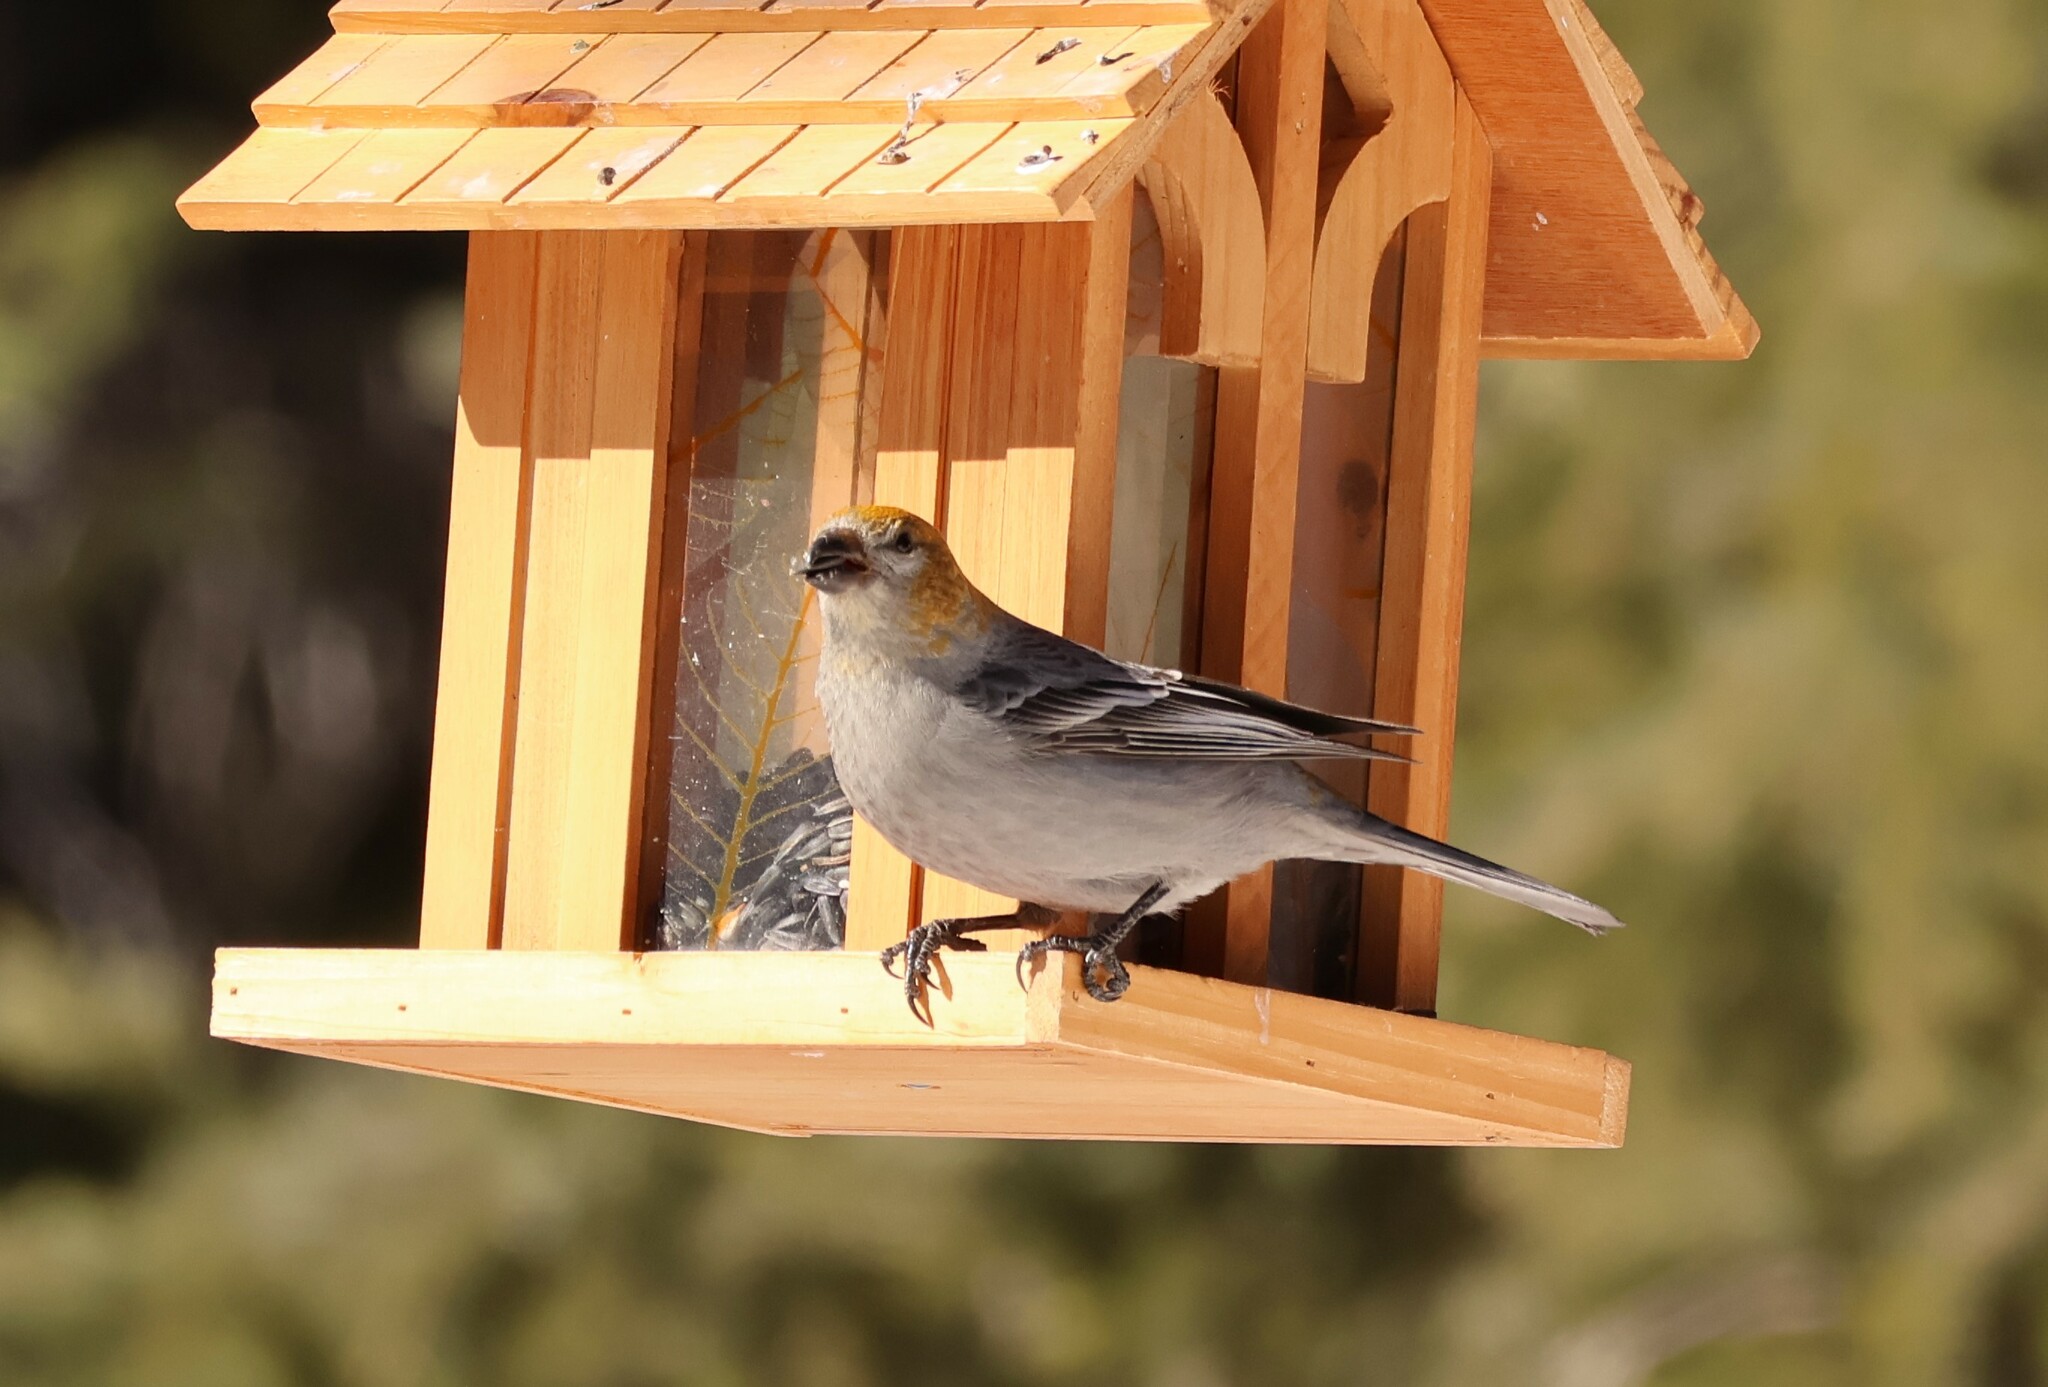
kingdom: Animalia
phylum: Chordata
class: Aves
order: Passeriformes
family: Fringillidae
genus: Pinicola
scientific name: Pinicola enucleator
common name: Pine grosbeak
